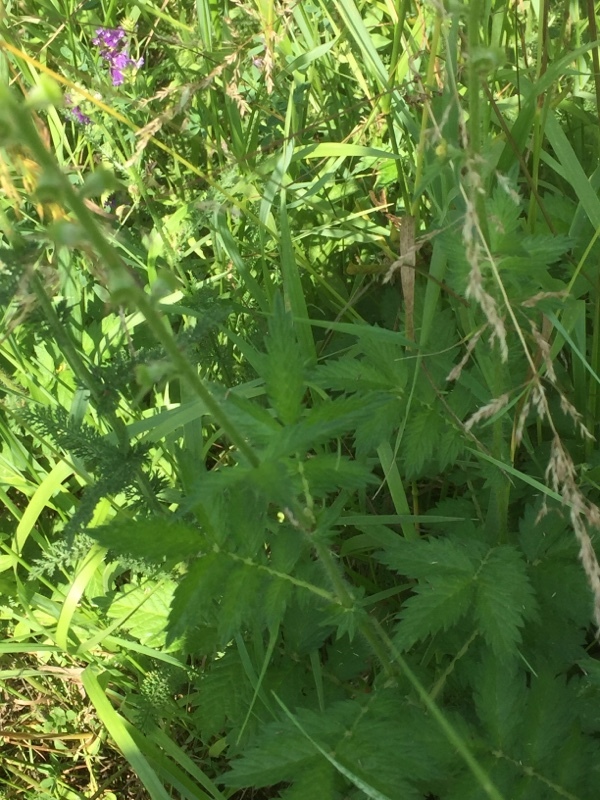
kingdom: Plantae
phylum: Tracheophyta
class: Magnoliopsida
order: Rosales
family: Rosaceae
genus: Agrimonia
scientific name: Agrimonia eupatoria
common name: Agrimony
